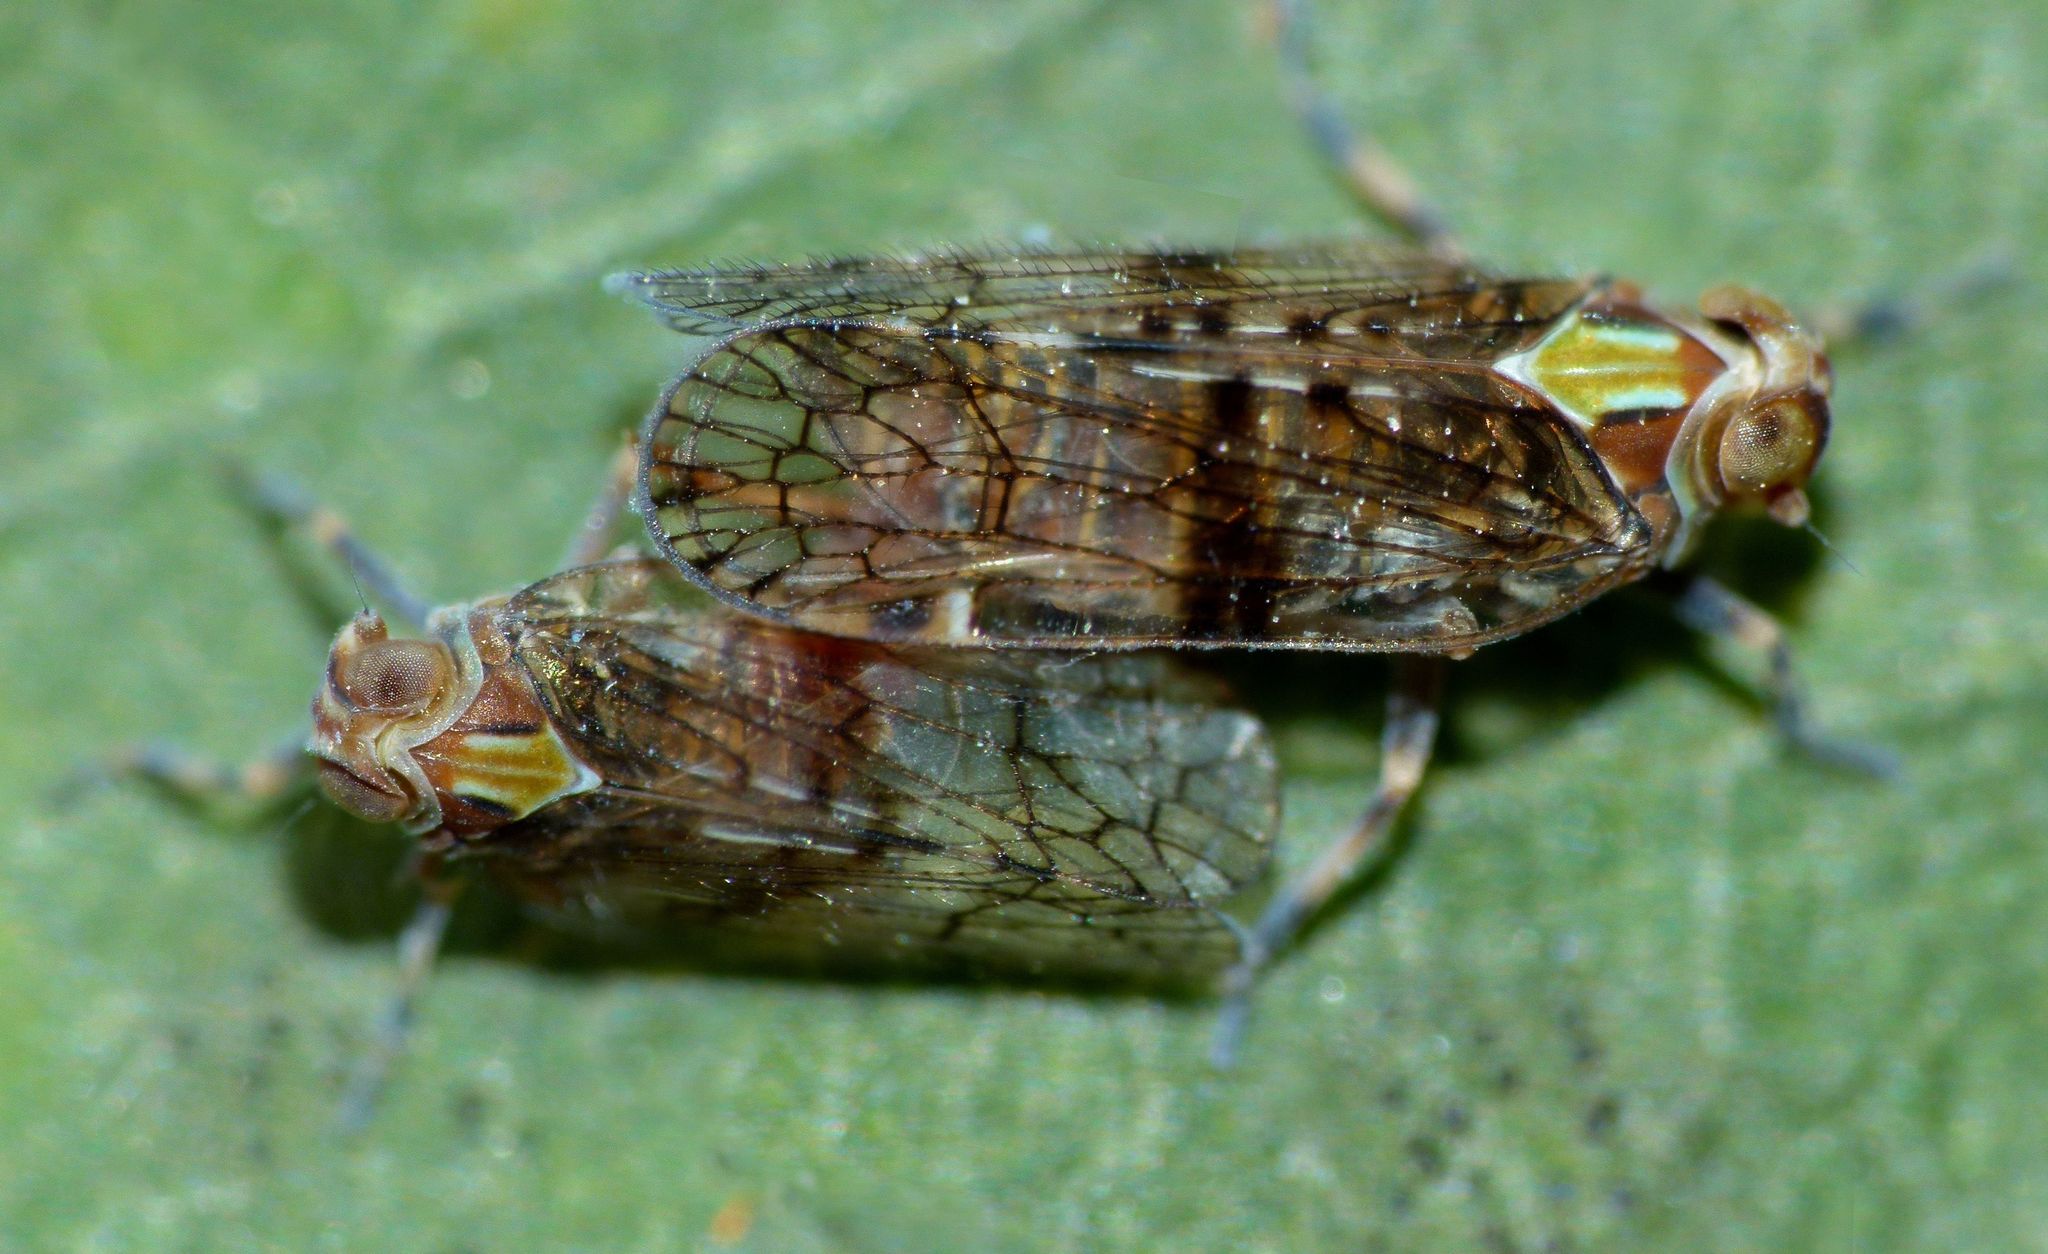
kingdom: Animalia
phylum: Arthropoda
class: Insecta
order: Hemiptera
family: Cixiidae
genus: Koroana
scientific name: Koroana lanceloti
